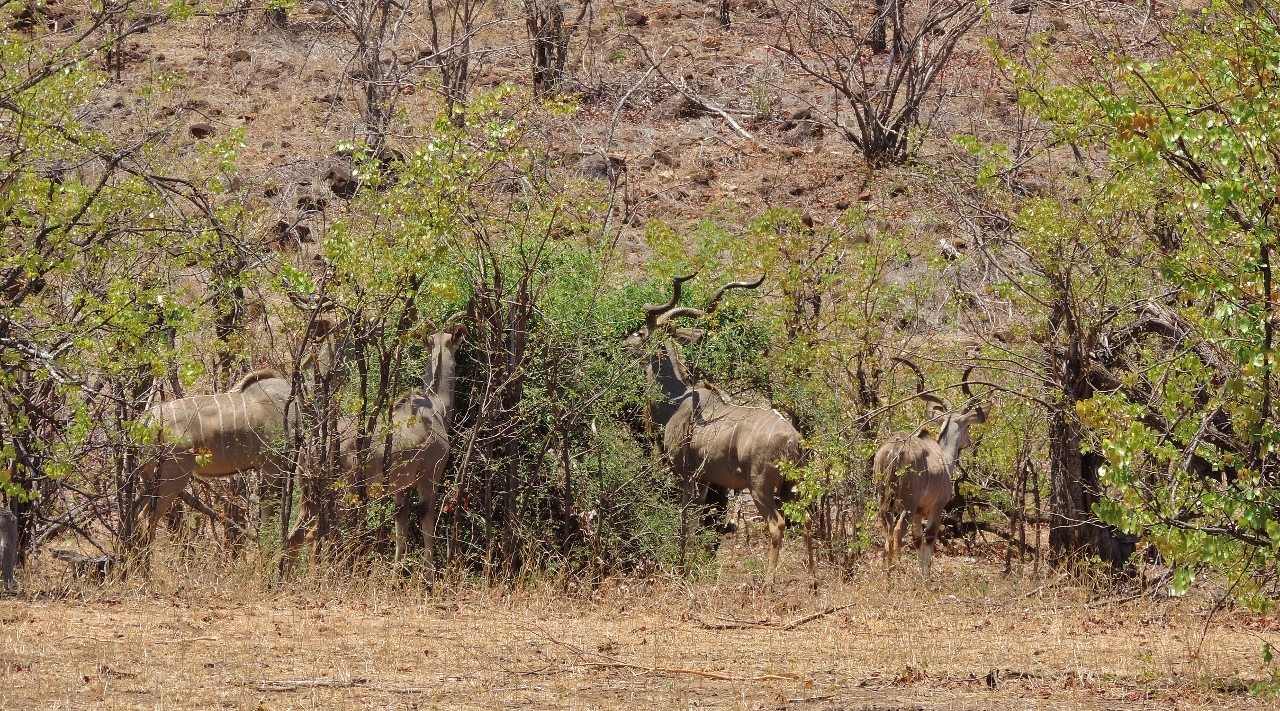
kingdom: Animalia
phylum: Chordata
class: Mammalia
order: Artiodactyla
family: Bovidae
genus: Tragelaphus
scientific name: Tragelaphus strepsiceros
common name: Greater kudu
